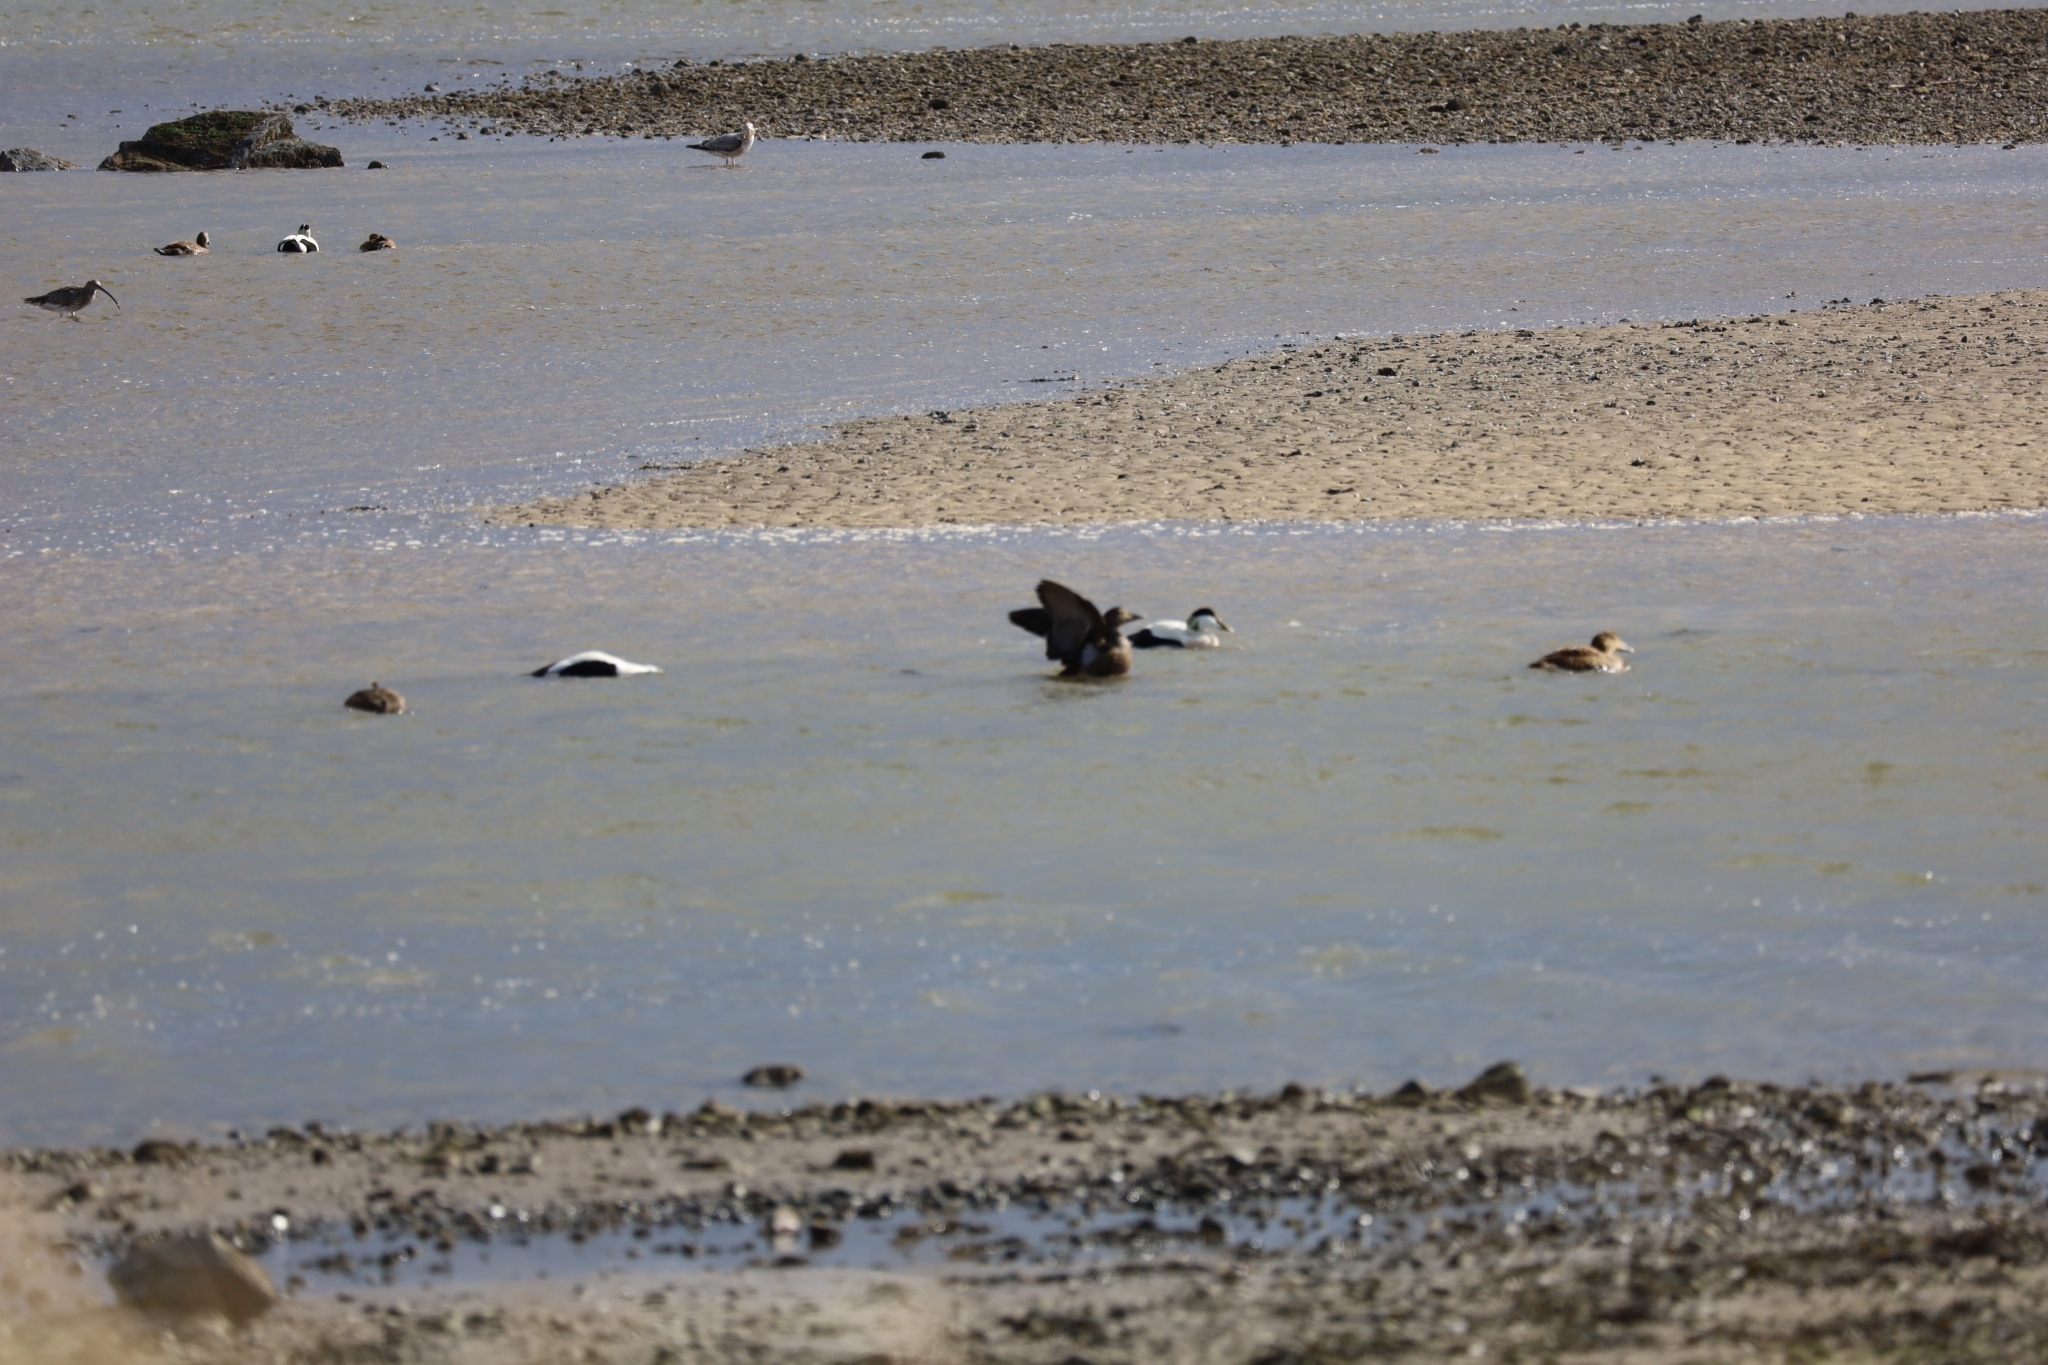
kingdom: Animalia
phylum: Chordata
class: Aves
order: Anseriformes
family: Anatidae
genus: Somateria
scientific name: Somateria mollissima
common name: Common eider
